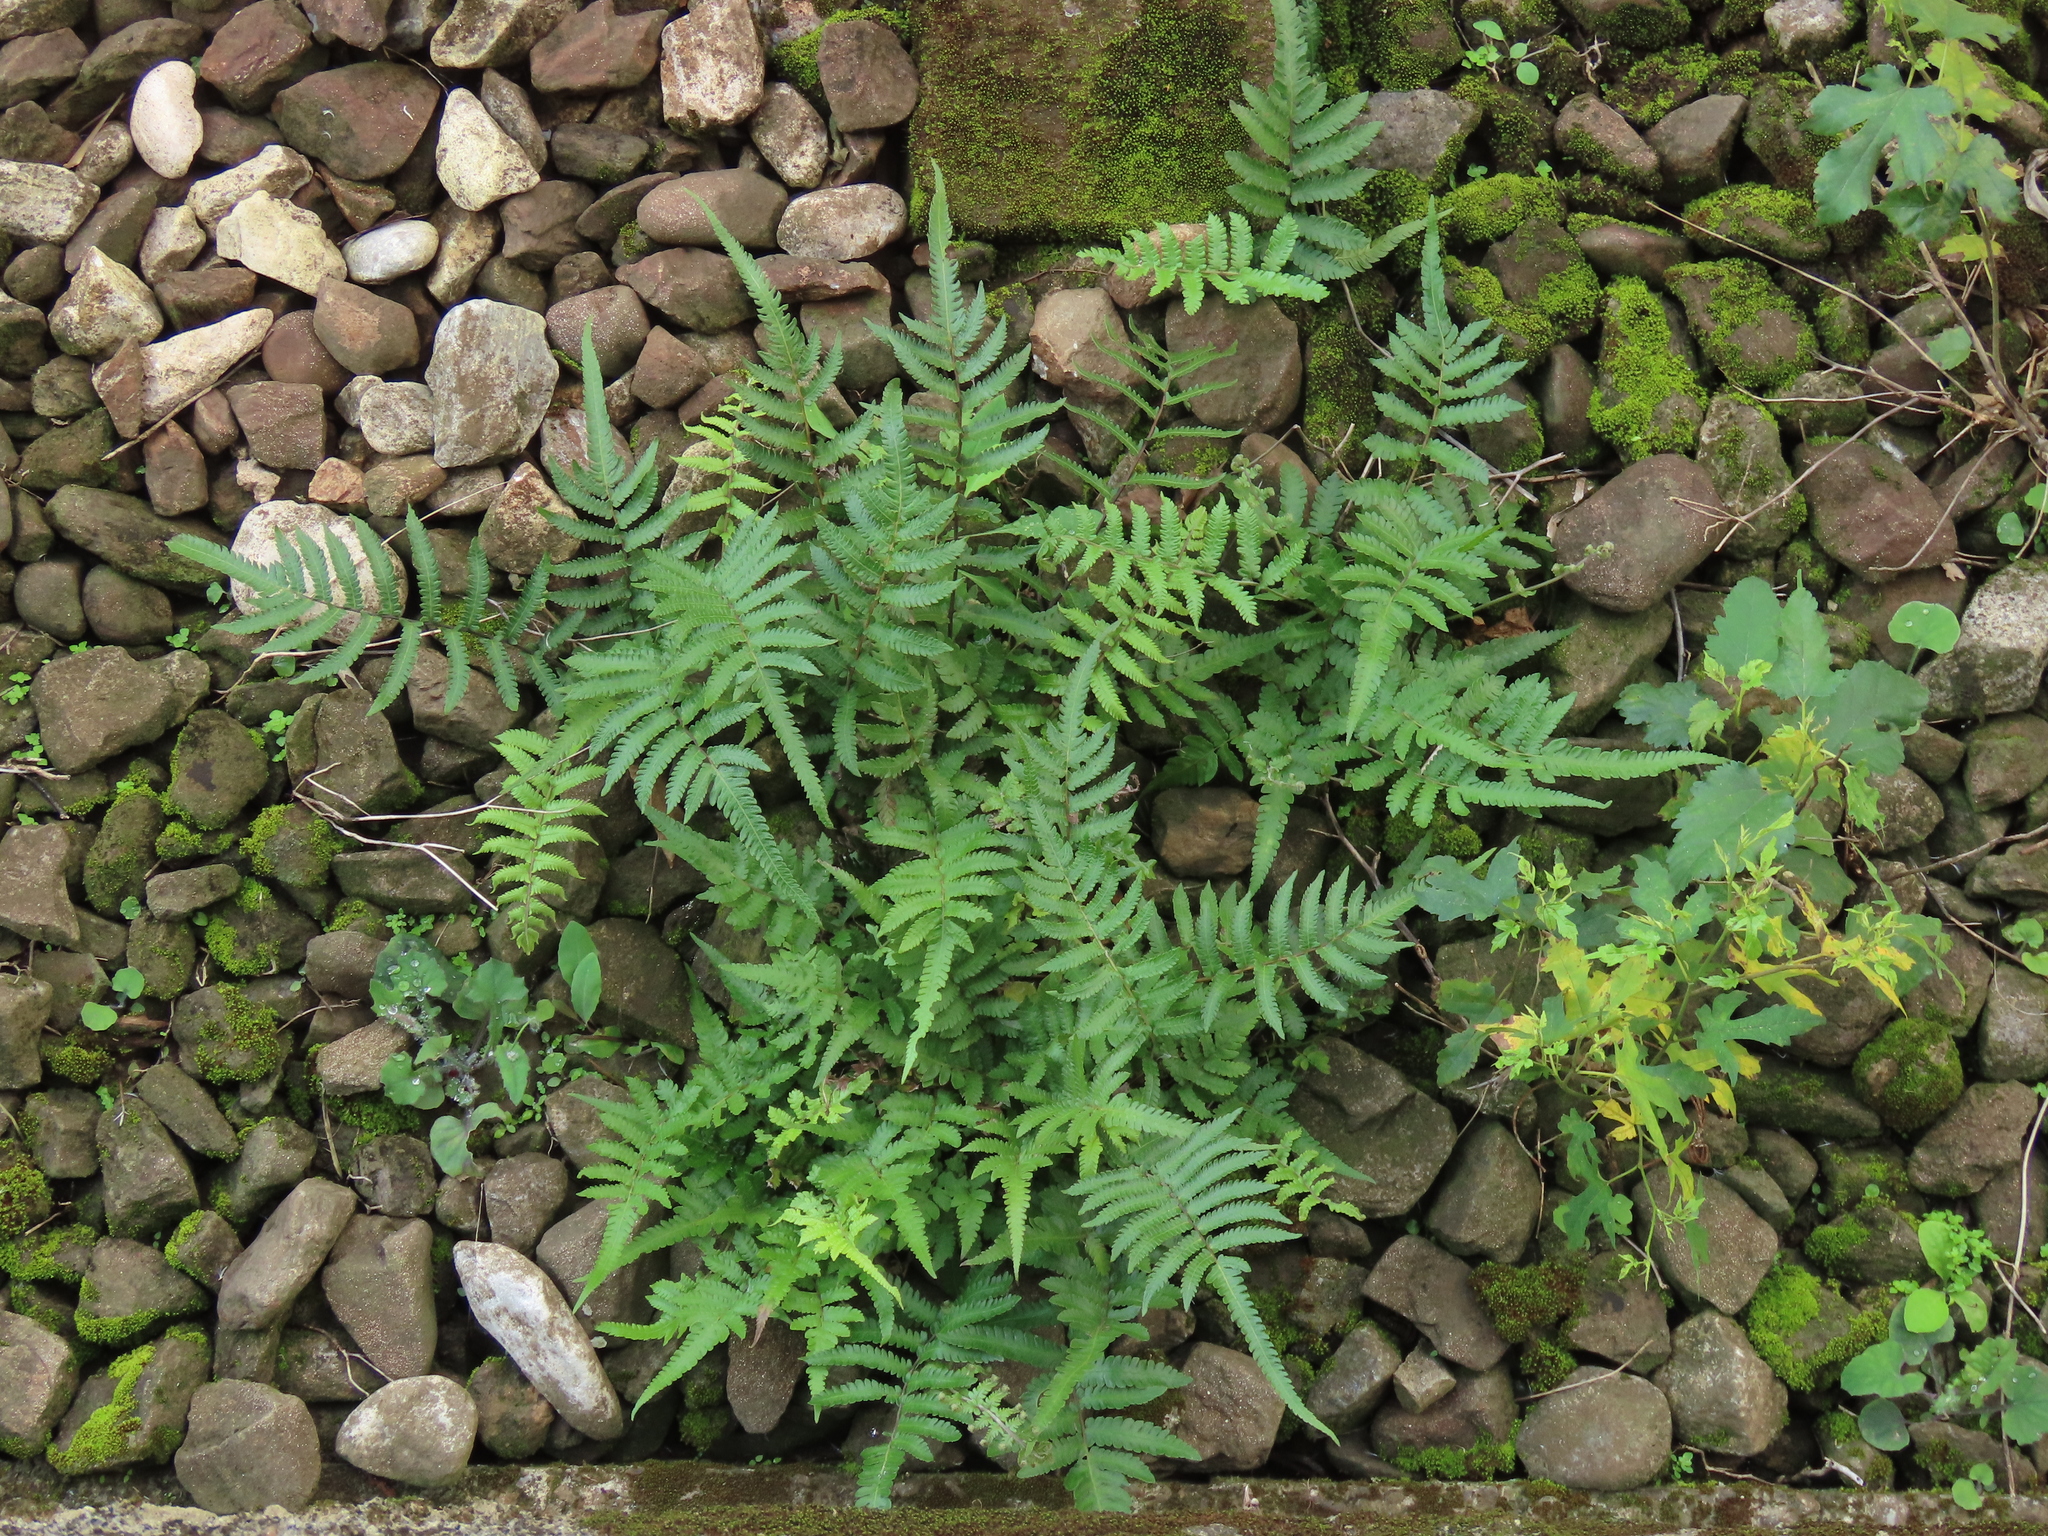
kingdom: Plantae
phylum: Tracheophyta
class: Polypodiopsida
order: Polypodiales
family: Thelypteridaceae
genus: Christella
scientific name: Christella acuminata
